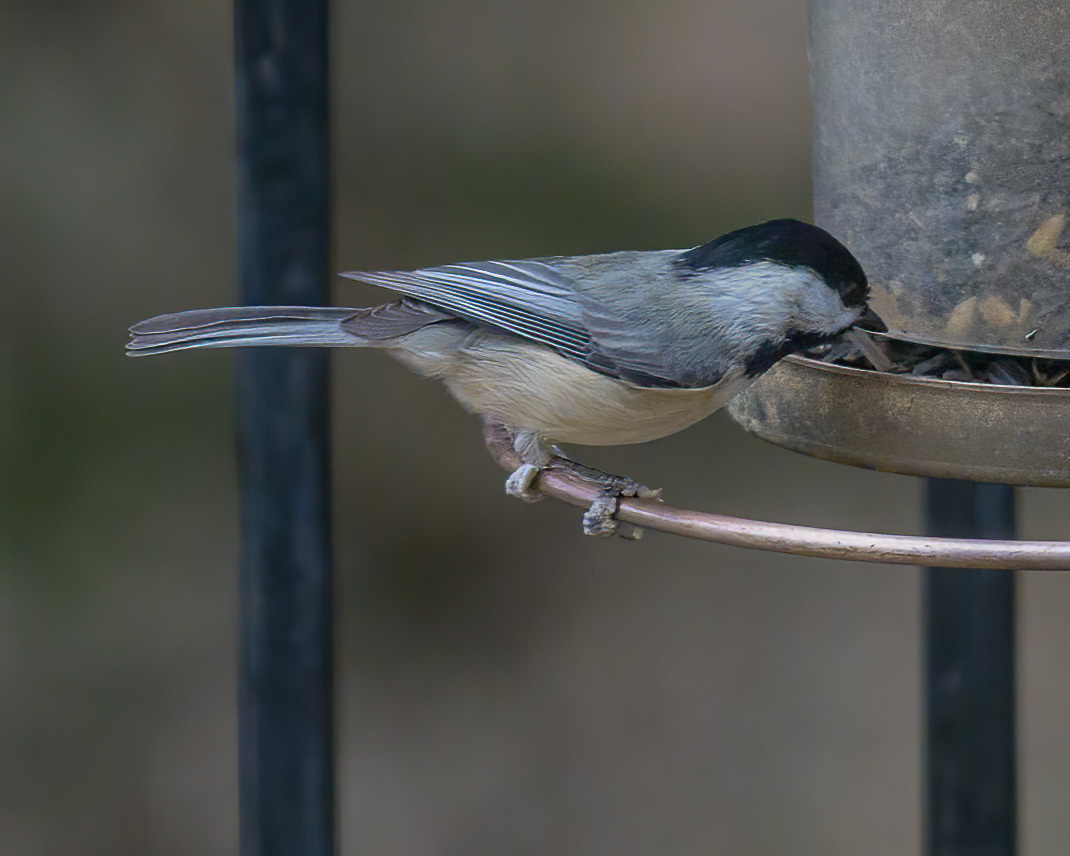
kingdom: Animalia
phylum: Chordata
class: Aves
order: Passeriformes
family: Paridae
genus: Poecile
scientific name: Poecile carolinensis
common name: Carolina chickadee
